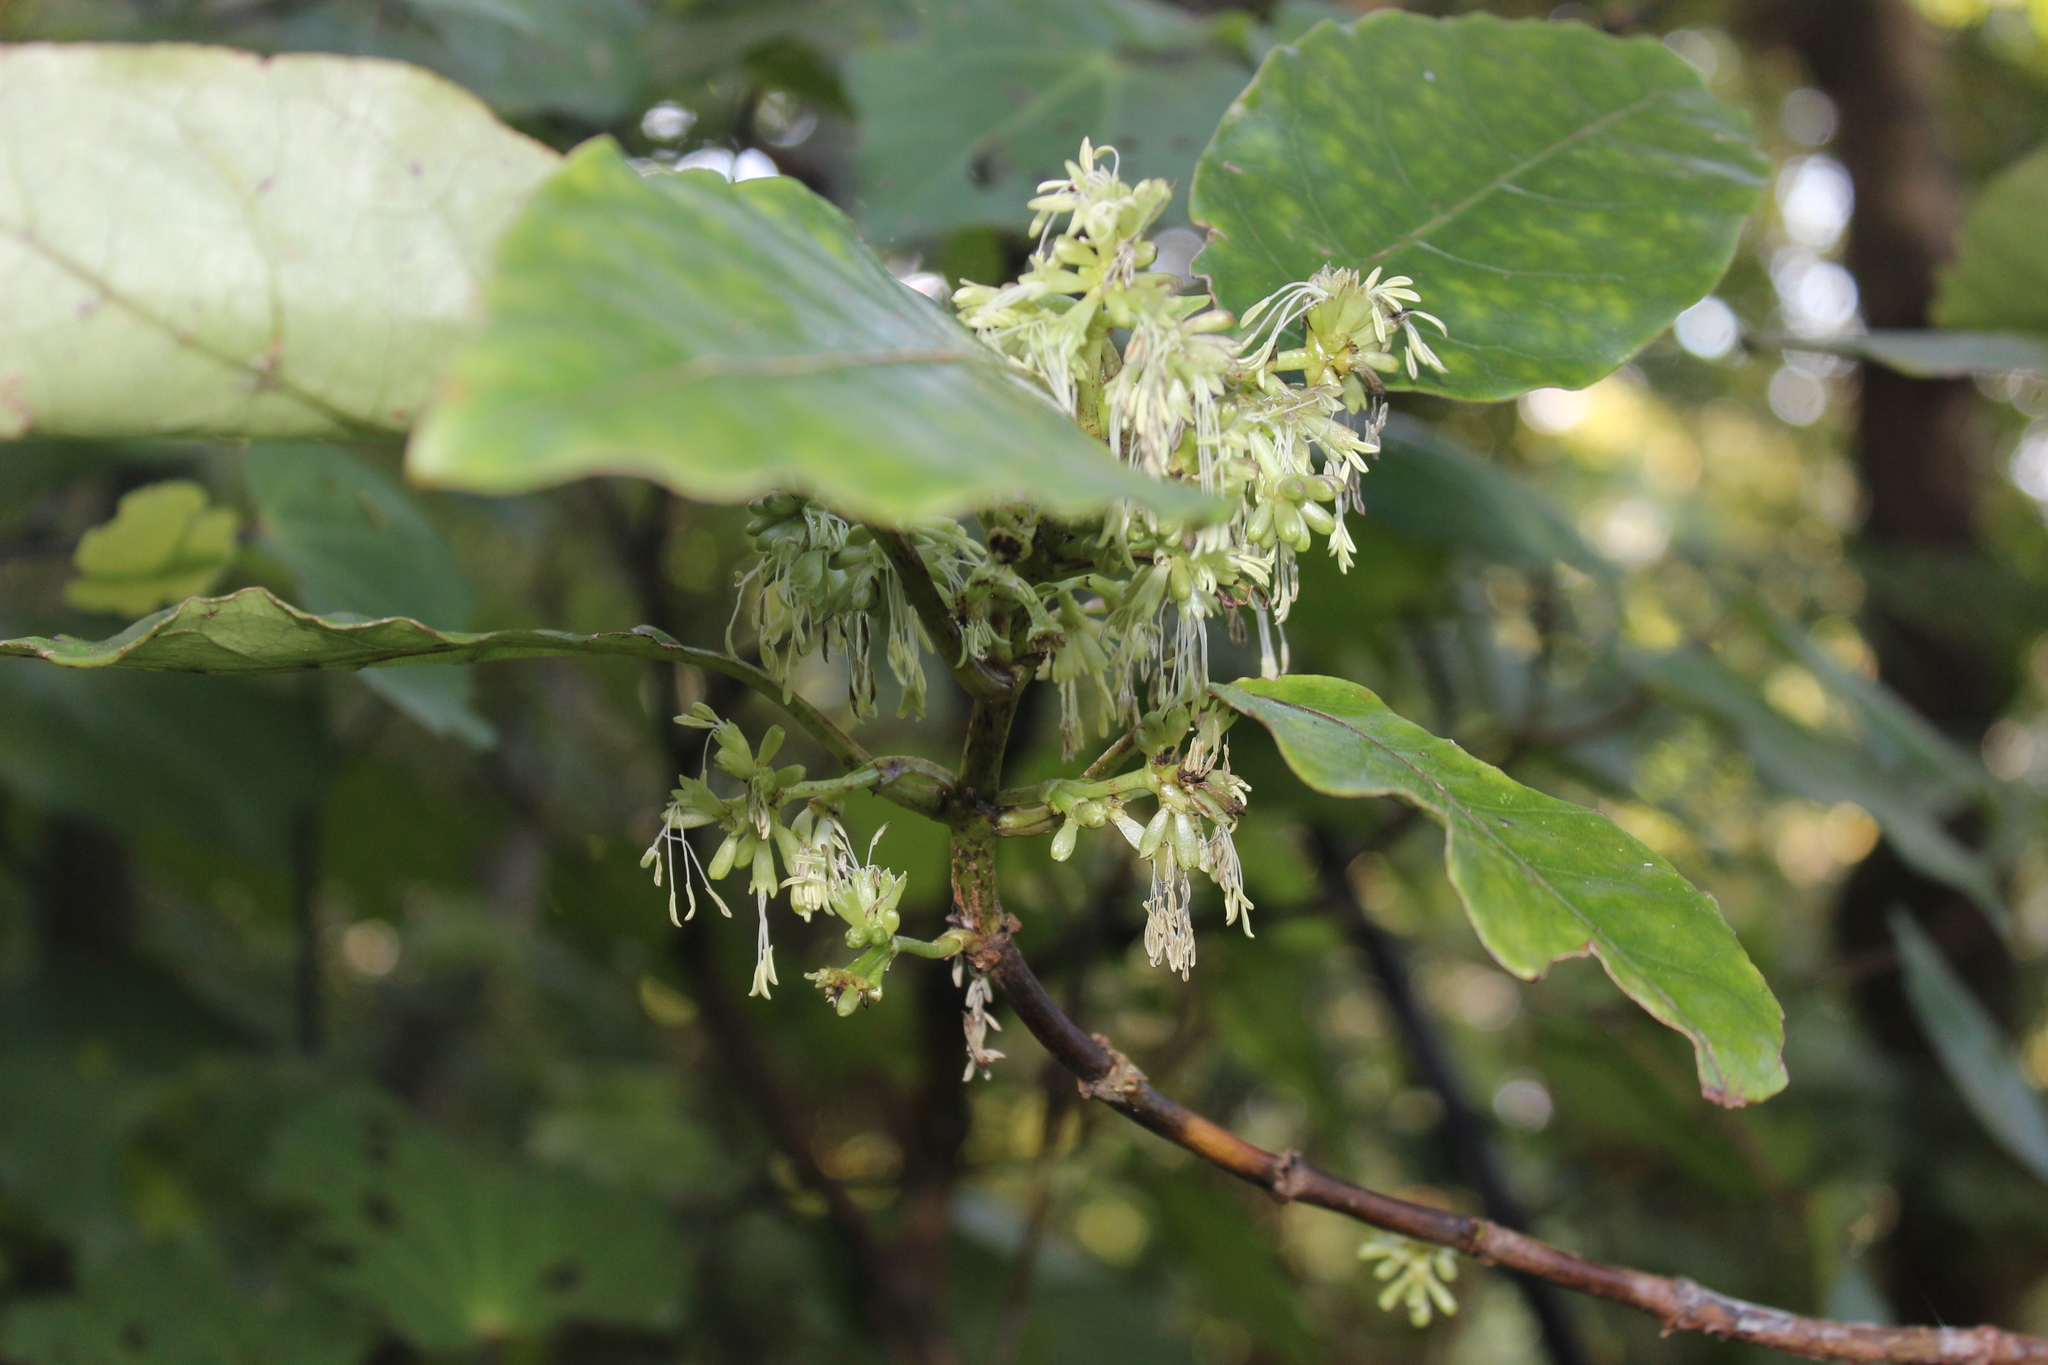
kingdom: Plantae
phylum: Tracheophyta
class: Magnoliopsida
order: Gentianales
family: Rubiaceae
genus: Coprosma
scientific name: Coprosma autumnalis
